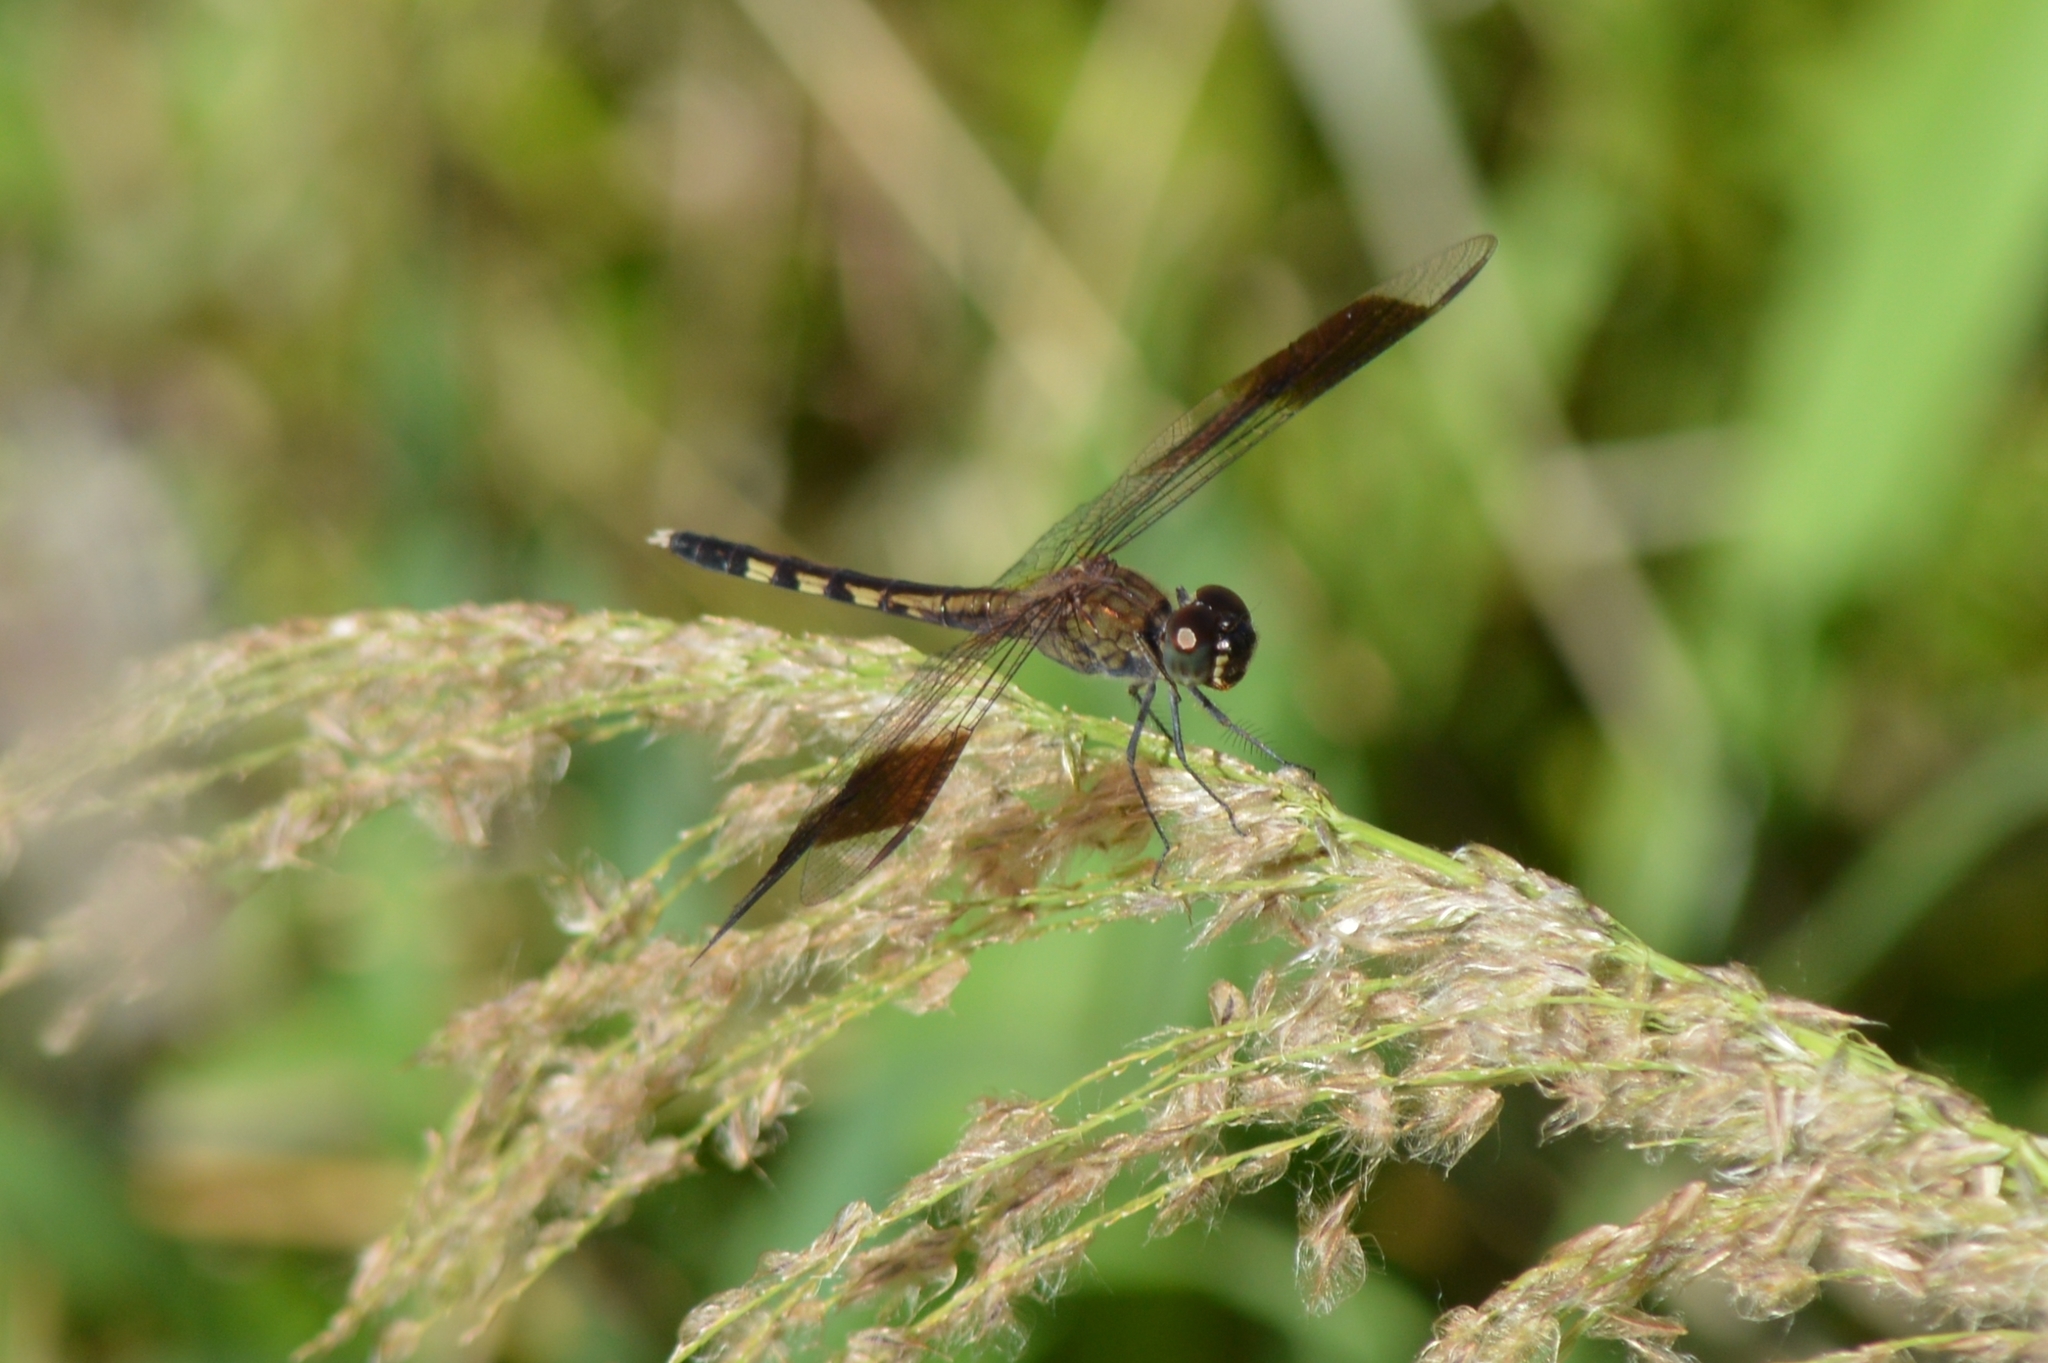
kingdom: Animalia
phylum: Arthropoda
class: Insecta
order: Odonata
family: Libellulidae
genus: Erythrodiplax
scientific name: Erythrodiplax umbrata
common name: Band-winged dragonlet
